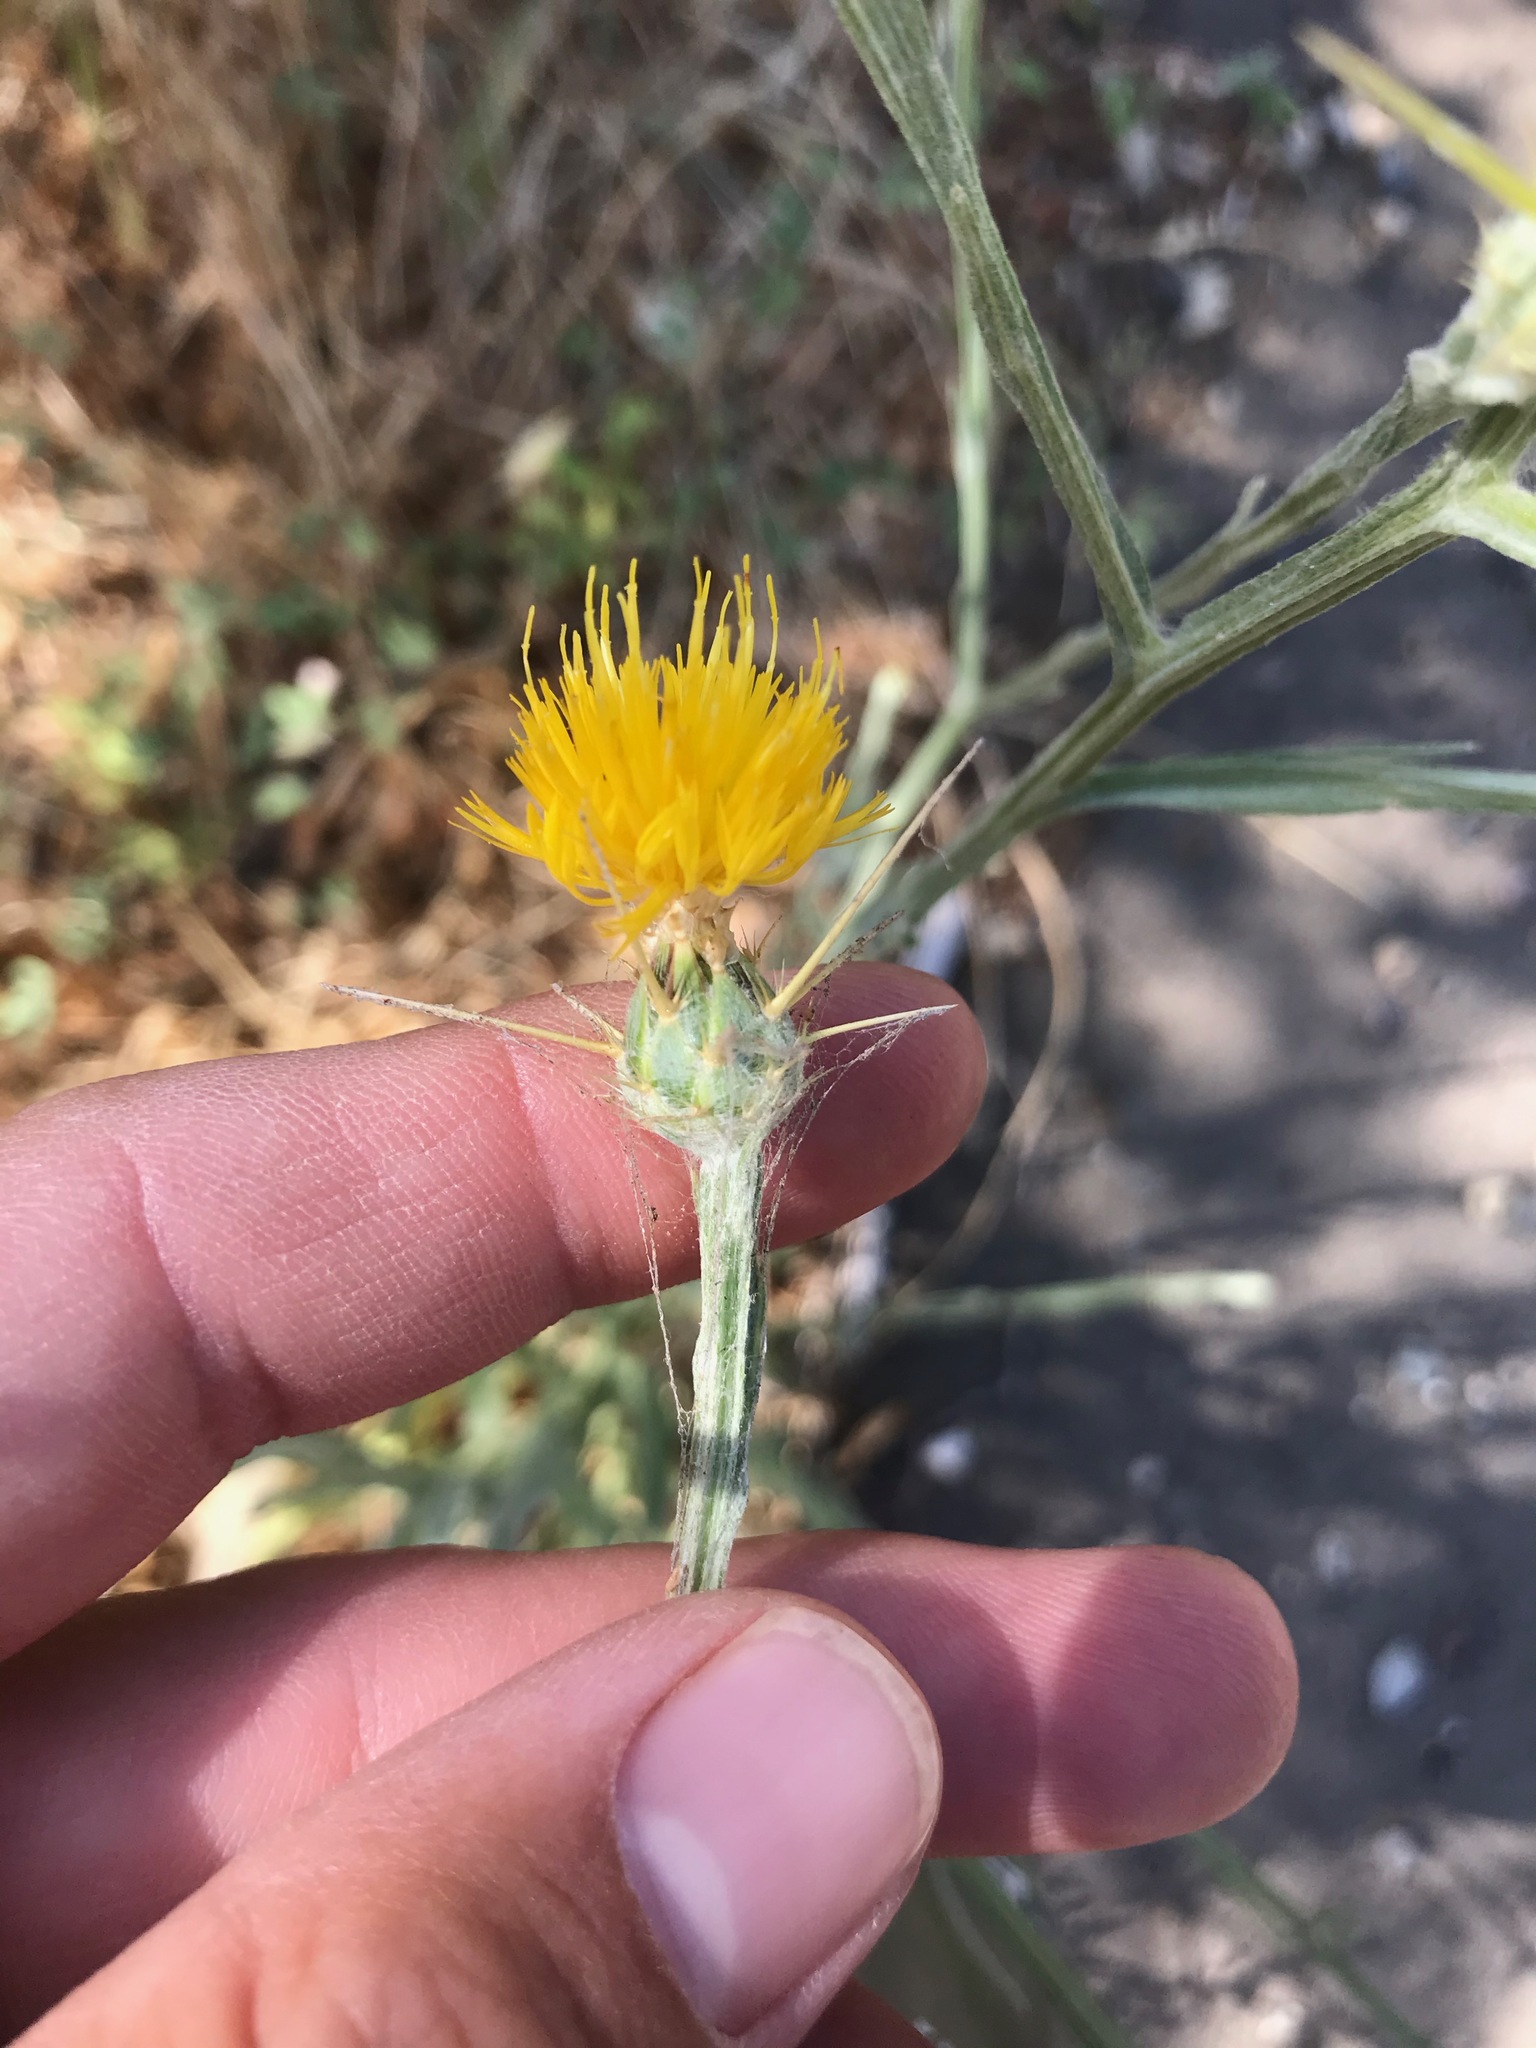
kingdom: Plantae
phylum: Tracheophyta
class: Magnoliopsida
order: Asterales
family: Asteraceae
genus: Centaurea
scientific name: Centaurea solstitialis
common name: Yellow star-thistle
